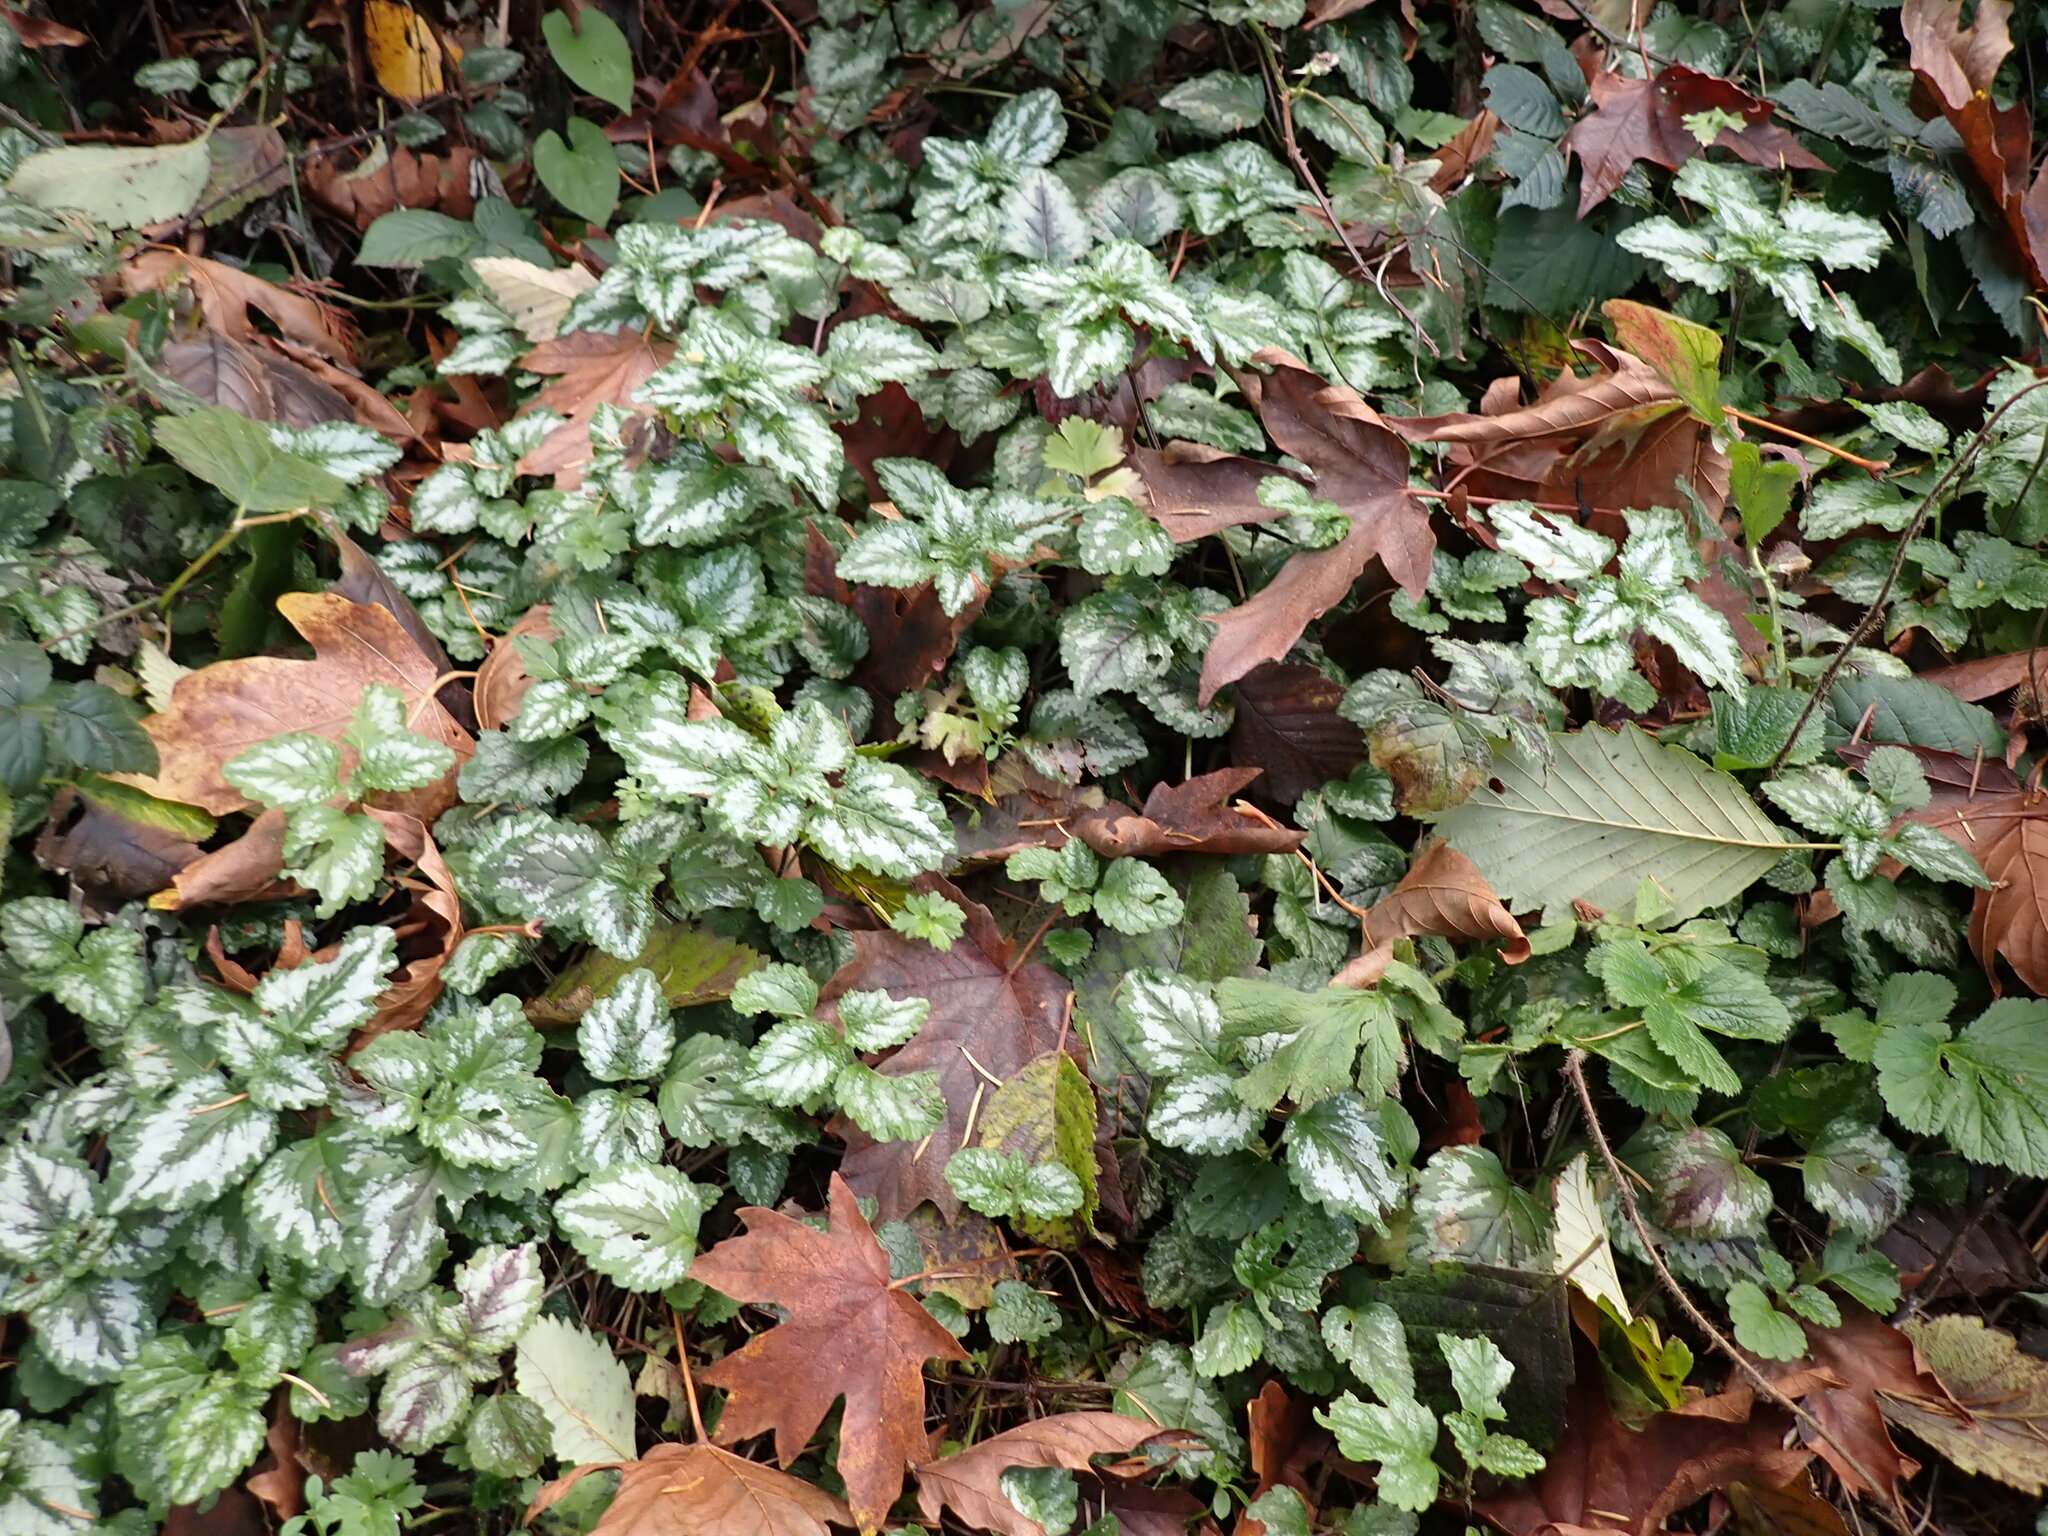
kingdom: Plantae
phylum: Tracheophyta
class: Magnoliopsida
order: Lamiales
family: Lamiaceae
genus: Lamium
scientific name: Lamium galeobdolon
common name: Yellow archangel
